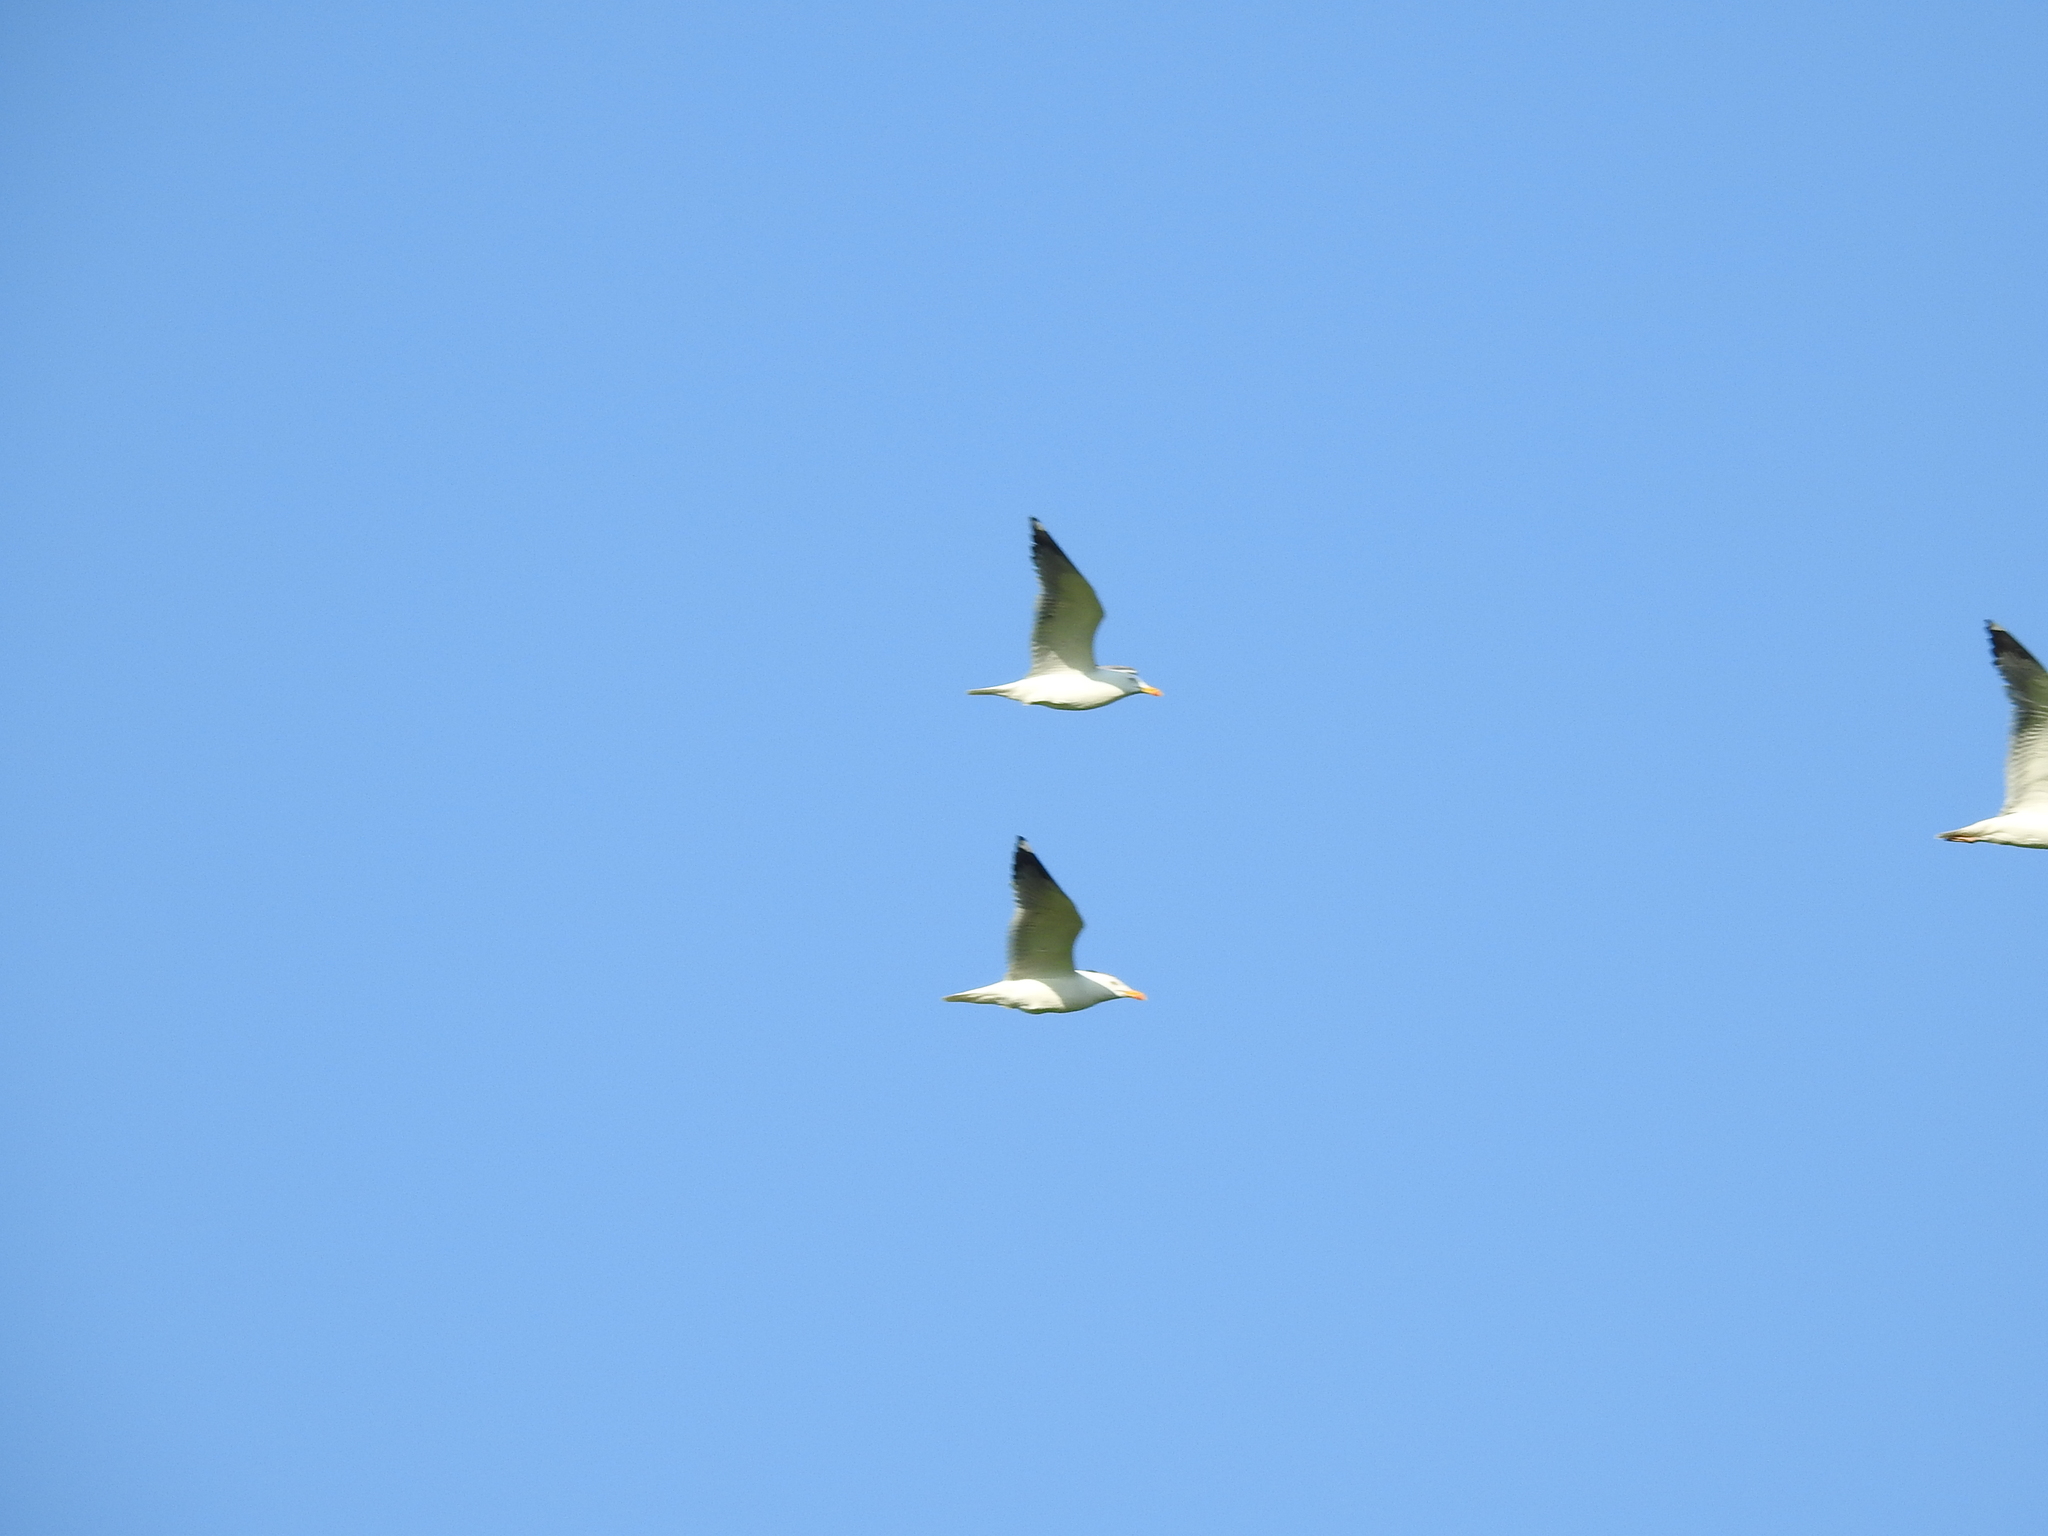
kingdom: Animalia
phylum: Chordata
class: Aves
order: Charadriiformes
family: Laridae
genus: Larus
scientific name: Larus fuscus
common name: Lesser black-backed gull
